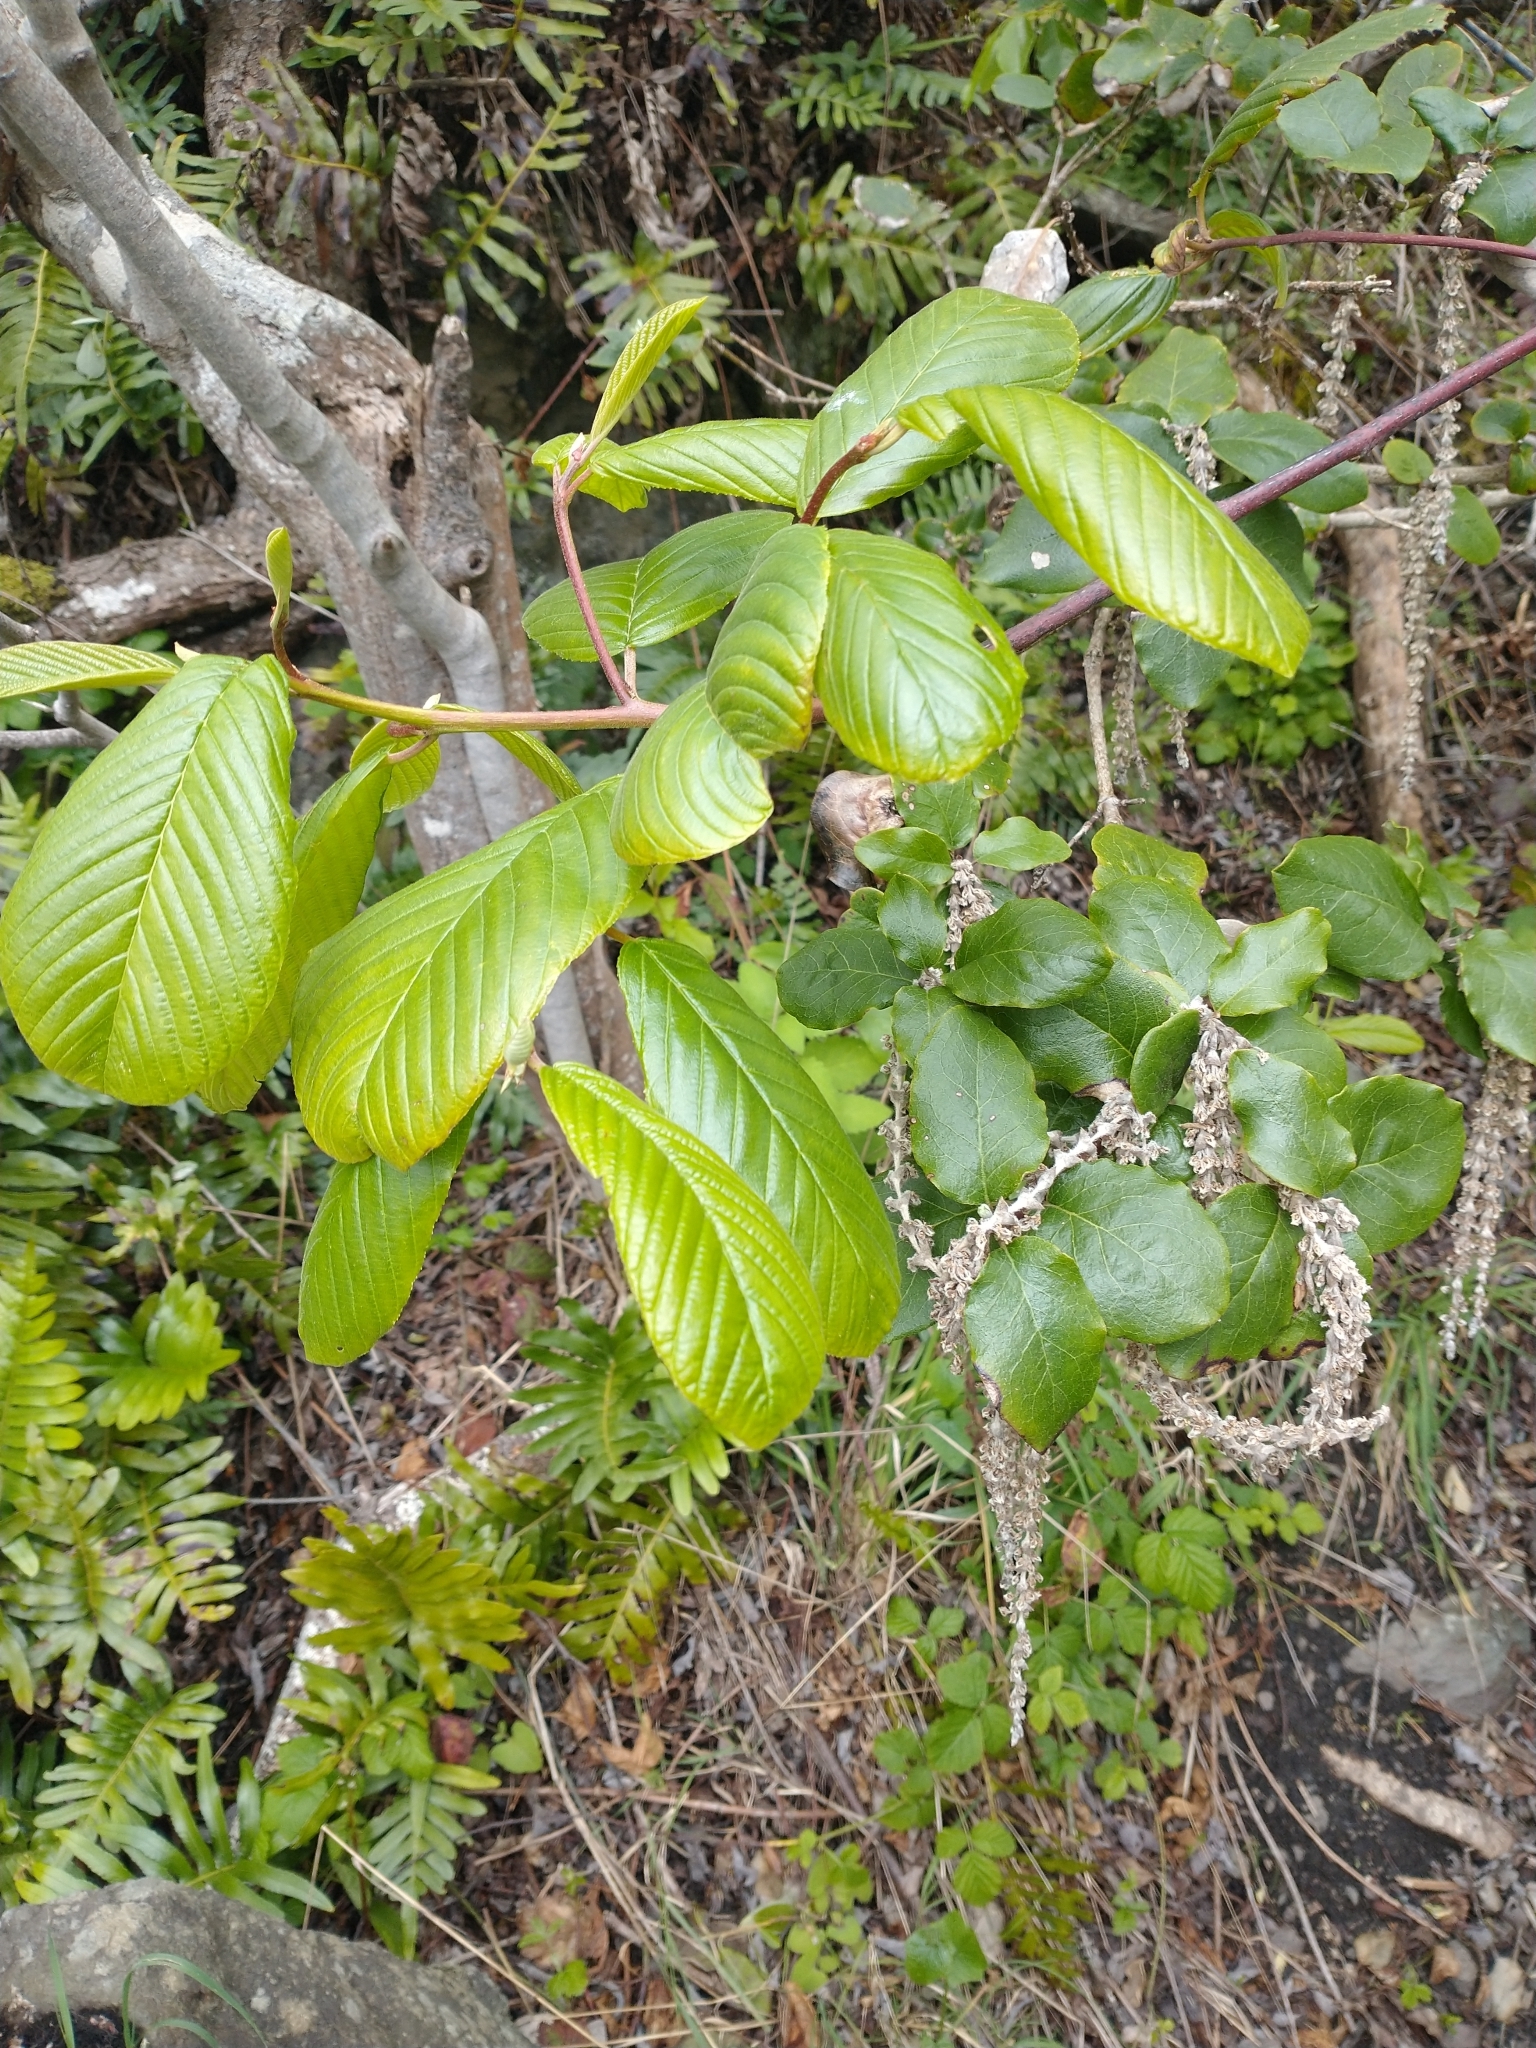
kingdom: Plantae
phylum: Tracheophyta
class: Magnoliopsida
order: Rosales
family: Rhamnaceae
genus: Frangula
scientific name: Frangula purshiana
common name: Cascara buckthorn
